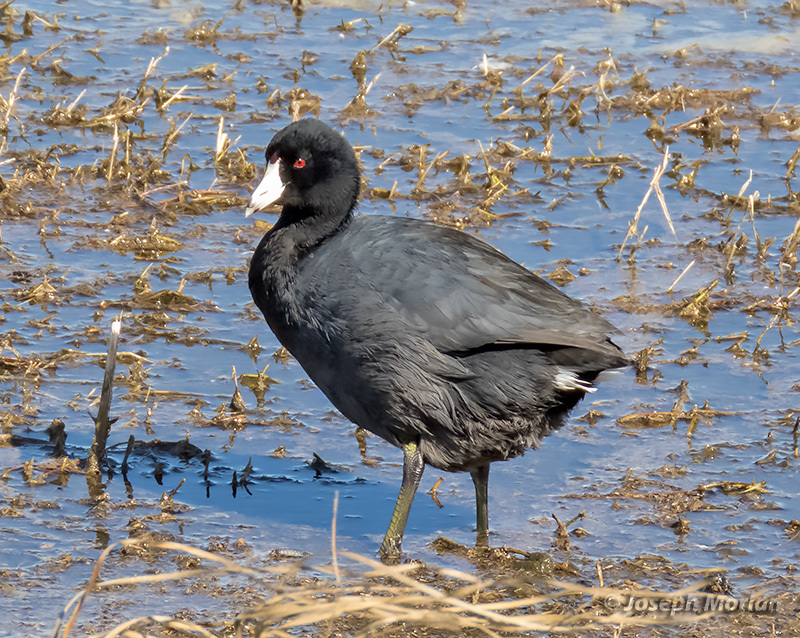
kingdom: Animalia
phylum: Chordata
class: Aves
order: Gruiformes
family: Rallidae
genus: Fulica
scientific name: Fulica americana
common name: American coot
